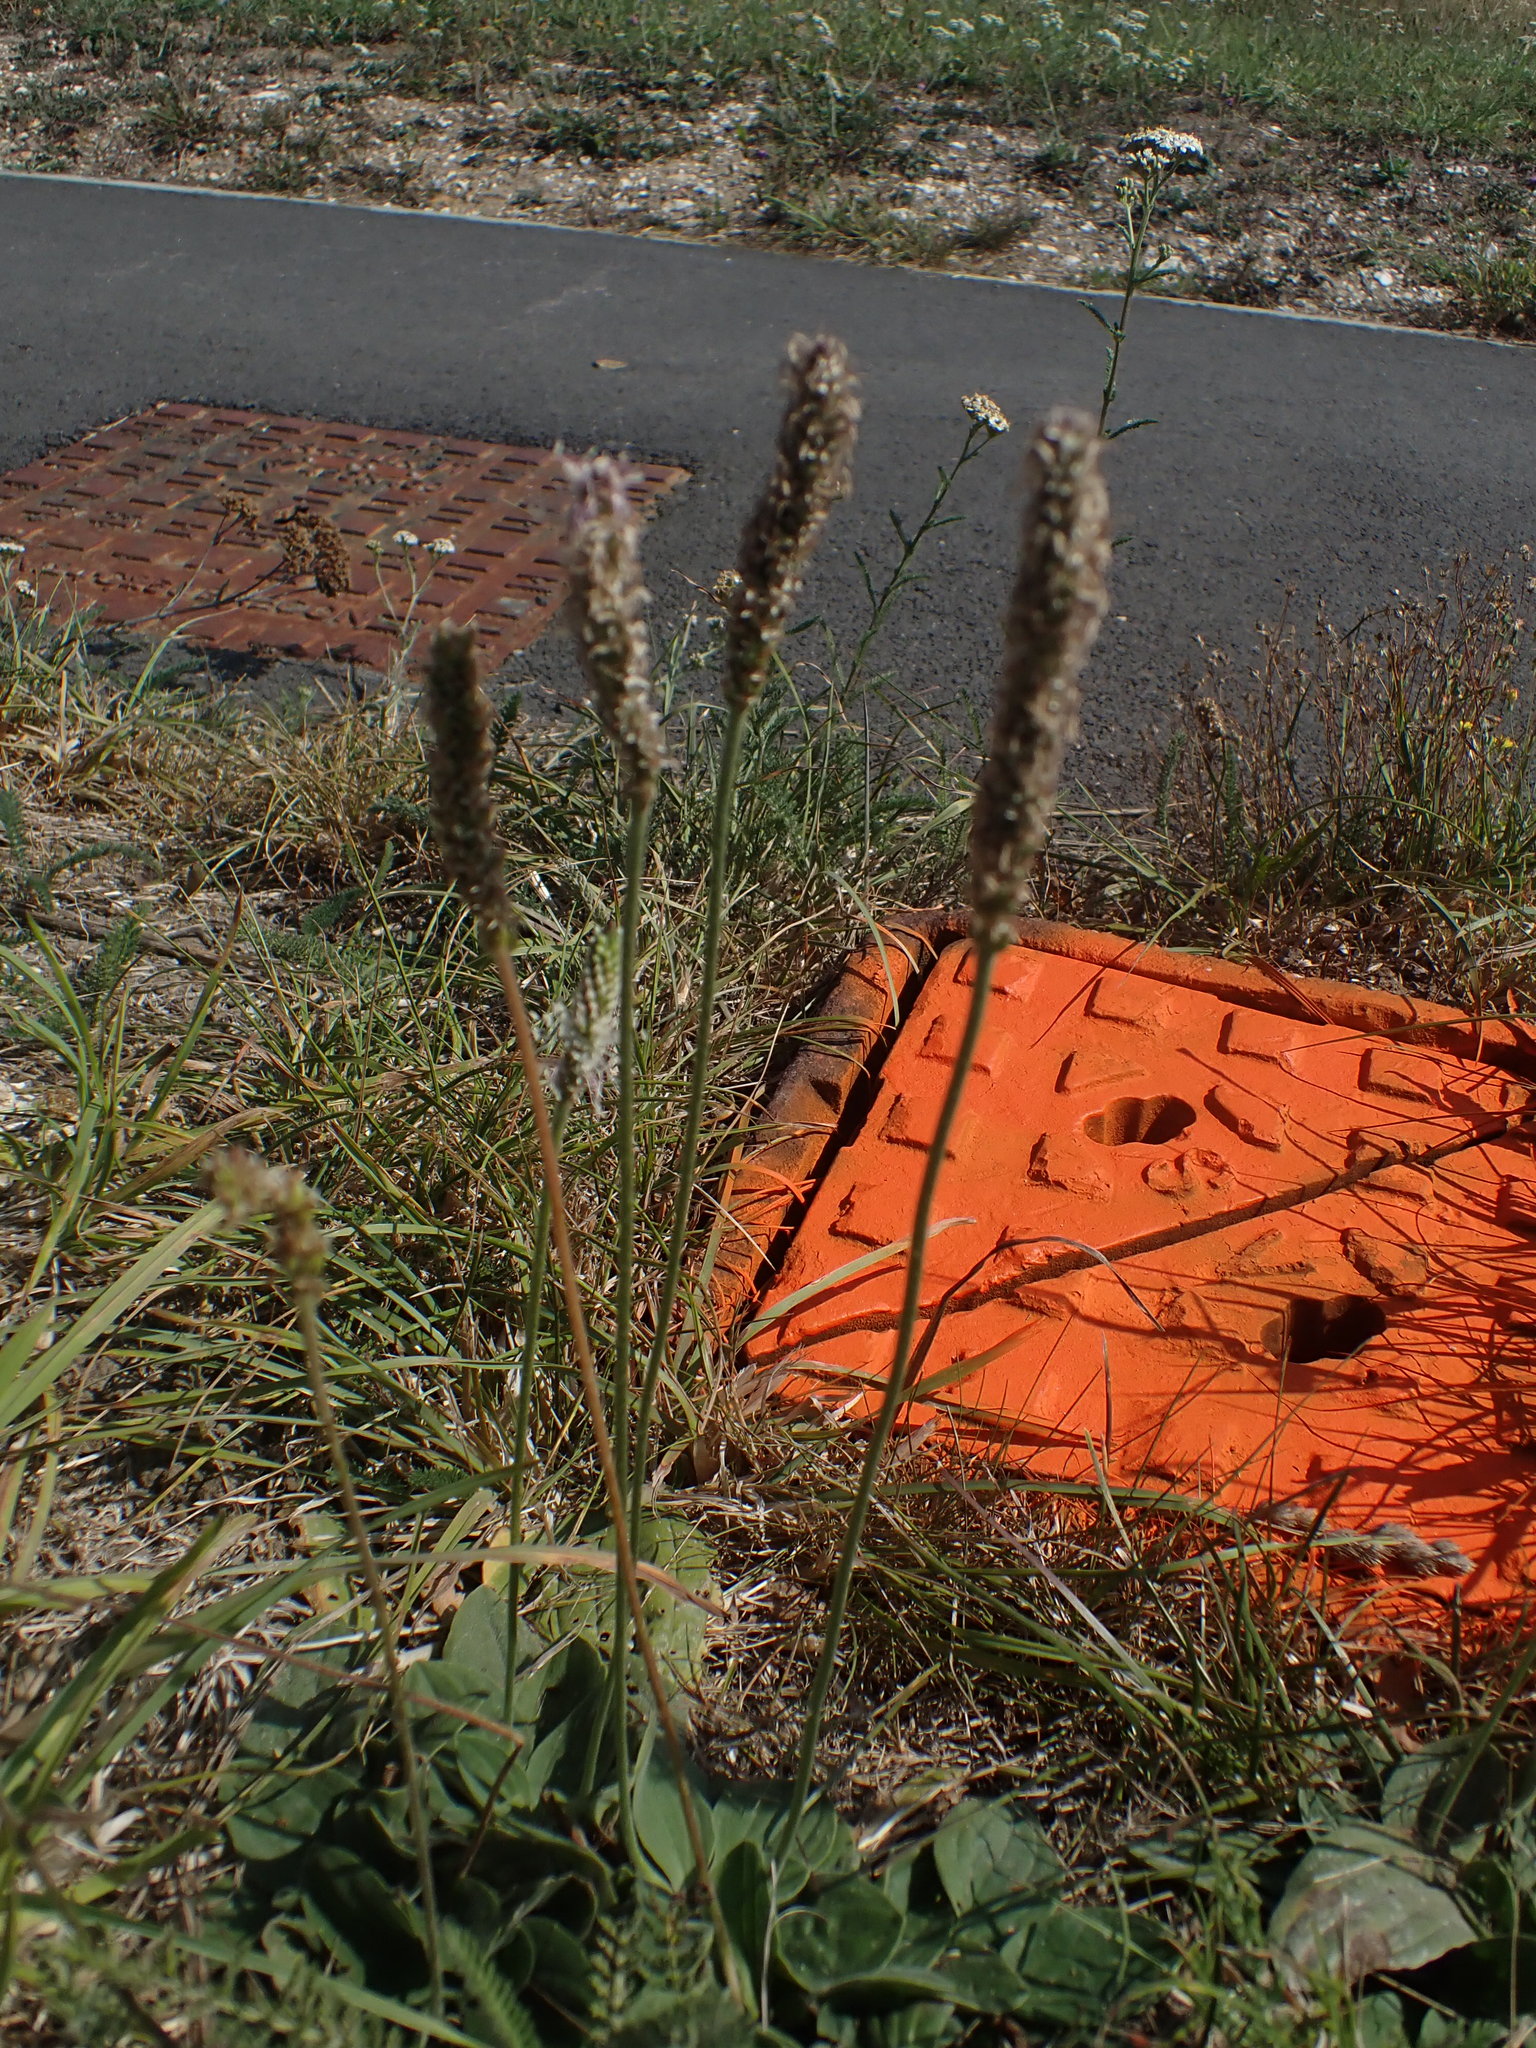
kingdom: Plantae
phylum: Tracheophyta
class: Magnoliopsida
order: Lamiales
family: Plantaginaceae
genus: Plantago
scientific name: Plantago media
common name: Hoary plantain
